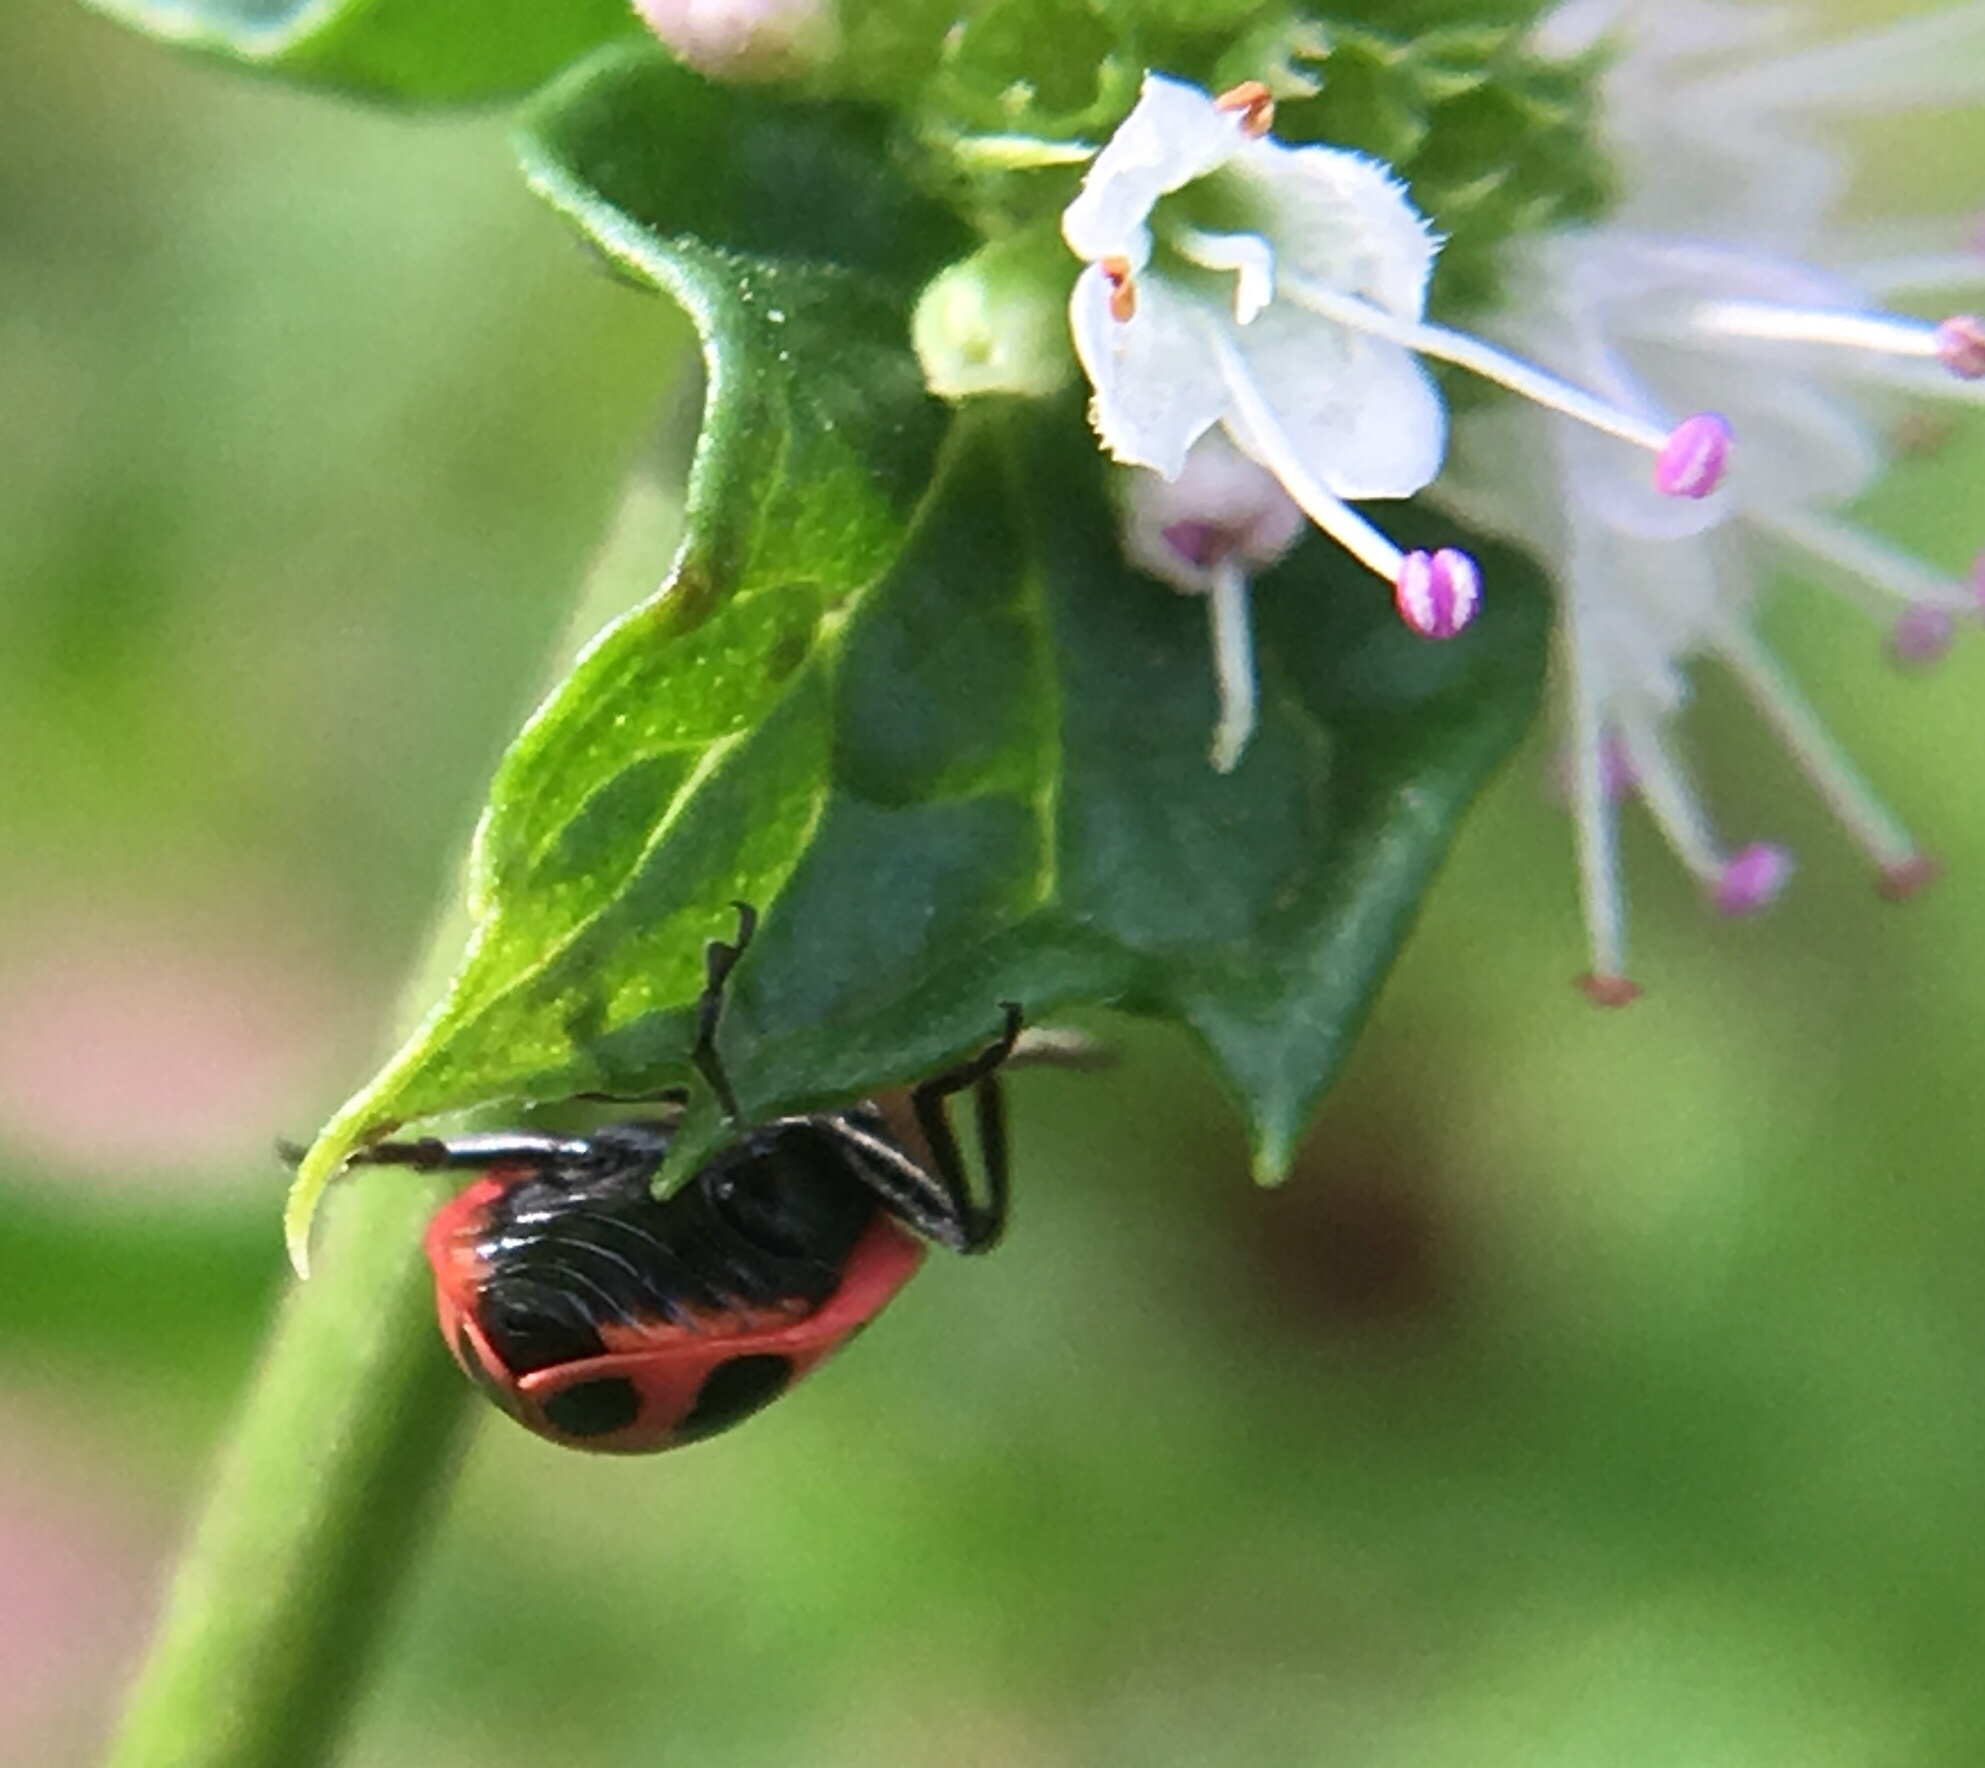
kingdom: Animalia
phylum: Arthropoda
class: Insecta
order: Coleoptera
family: Coccinellidae
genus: Coleomegilla
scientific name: Coleomegilla maculata
